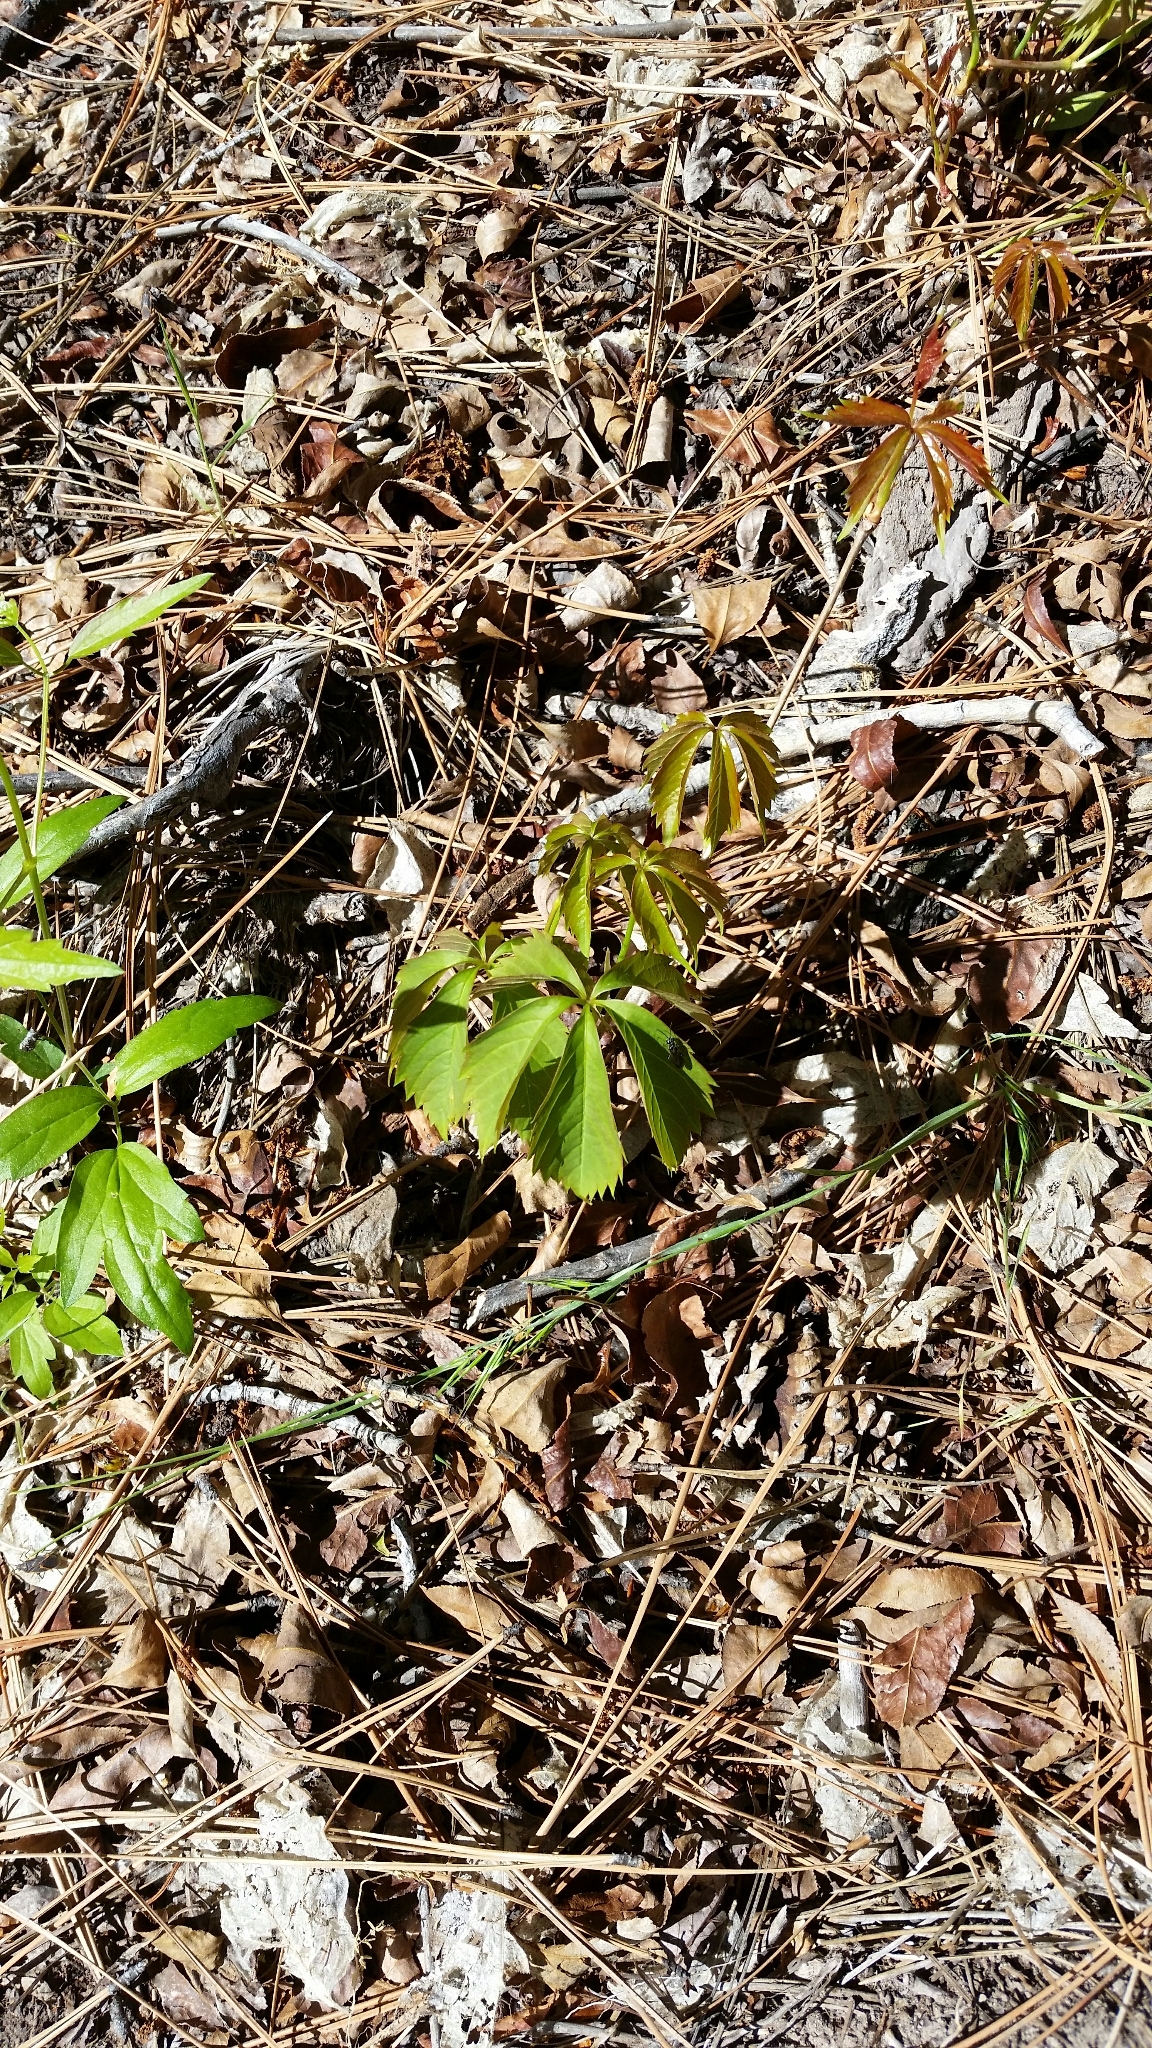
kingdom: Plantae
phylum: Tracheophyta
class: Magnoliopsida
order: Vitales
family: Vitaceae
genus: Parthenocissus
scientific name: Parthenocissus inserta
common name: False virginia-creeper
